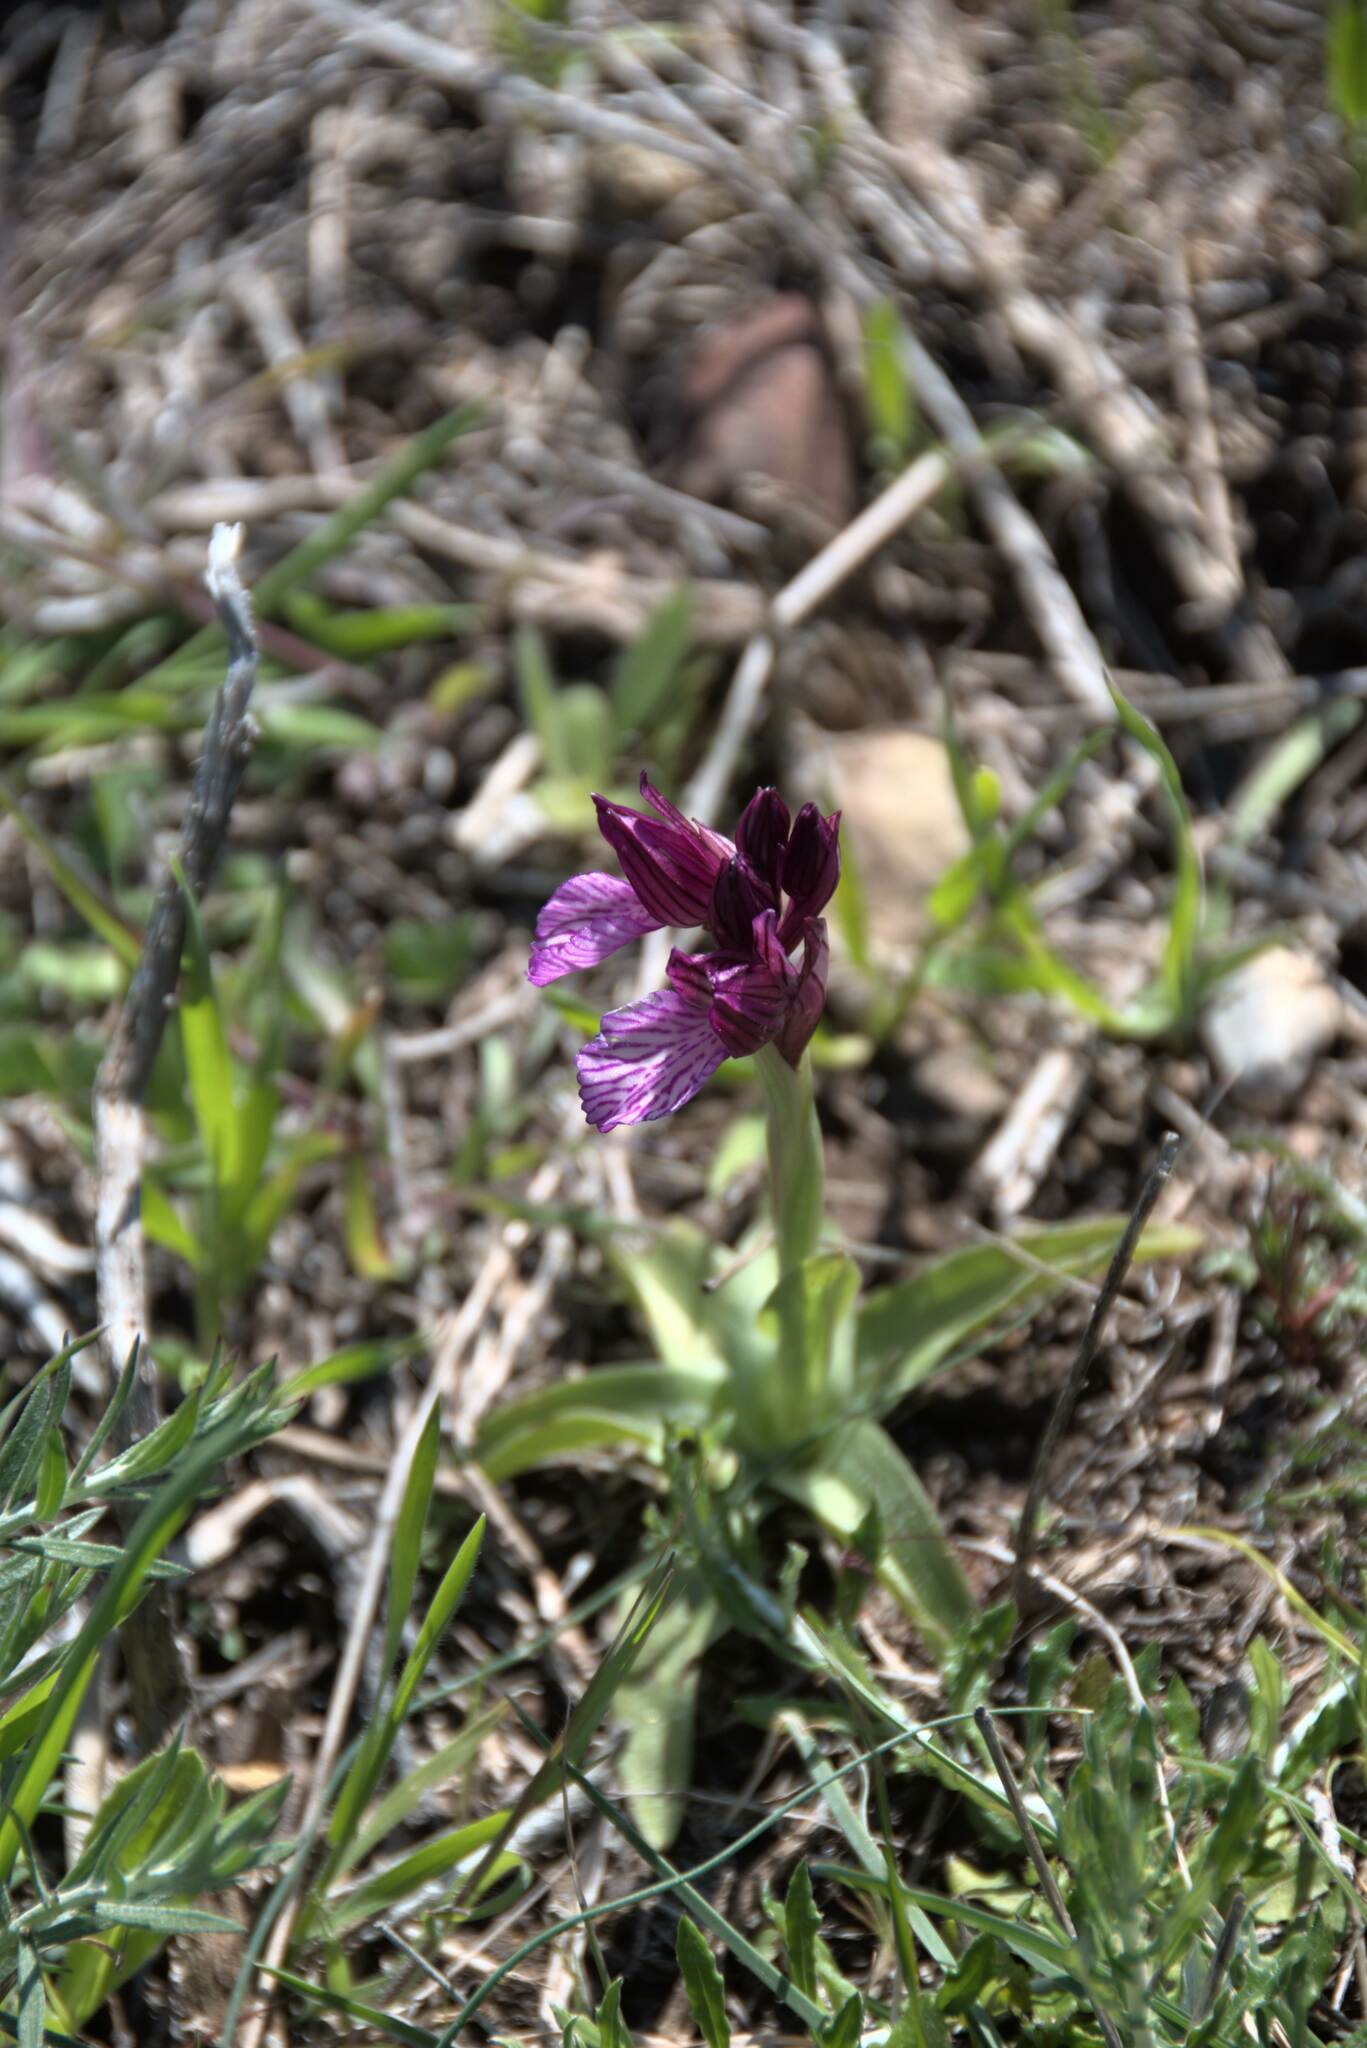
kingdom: Plantae
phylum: Tracheophyta
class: Liliopsida
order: Asparagales
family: Orchidaceae
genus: Anacamptis
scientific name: Anacamptis papilionacea
